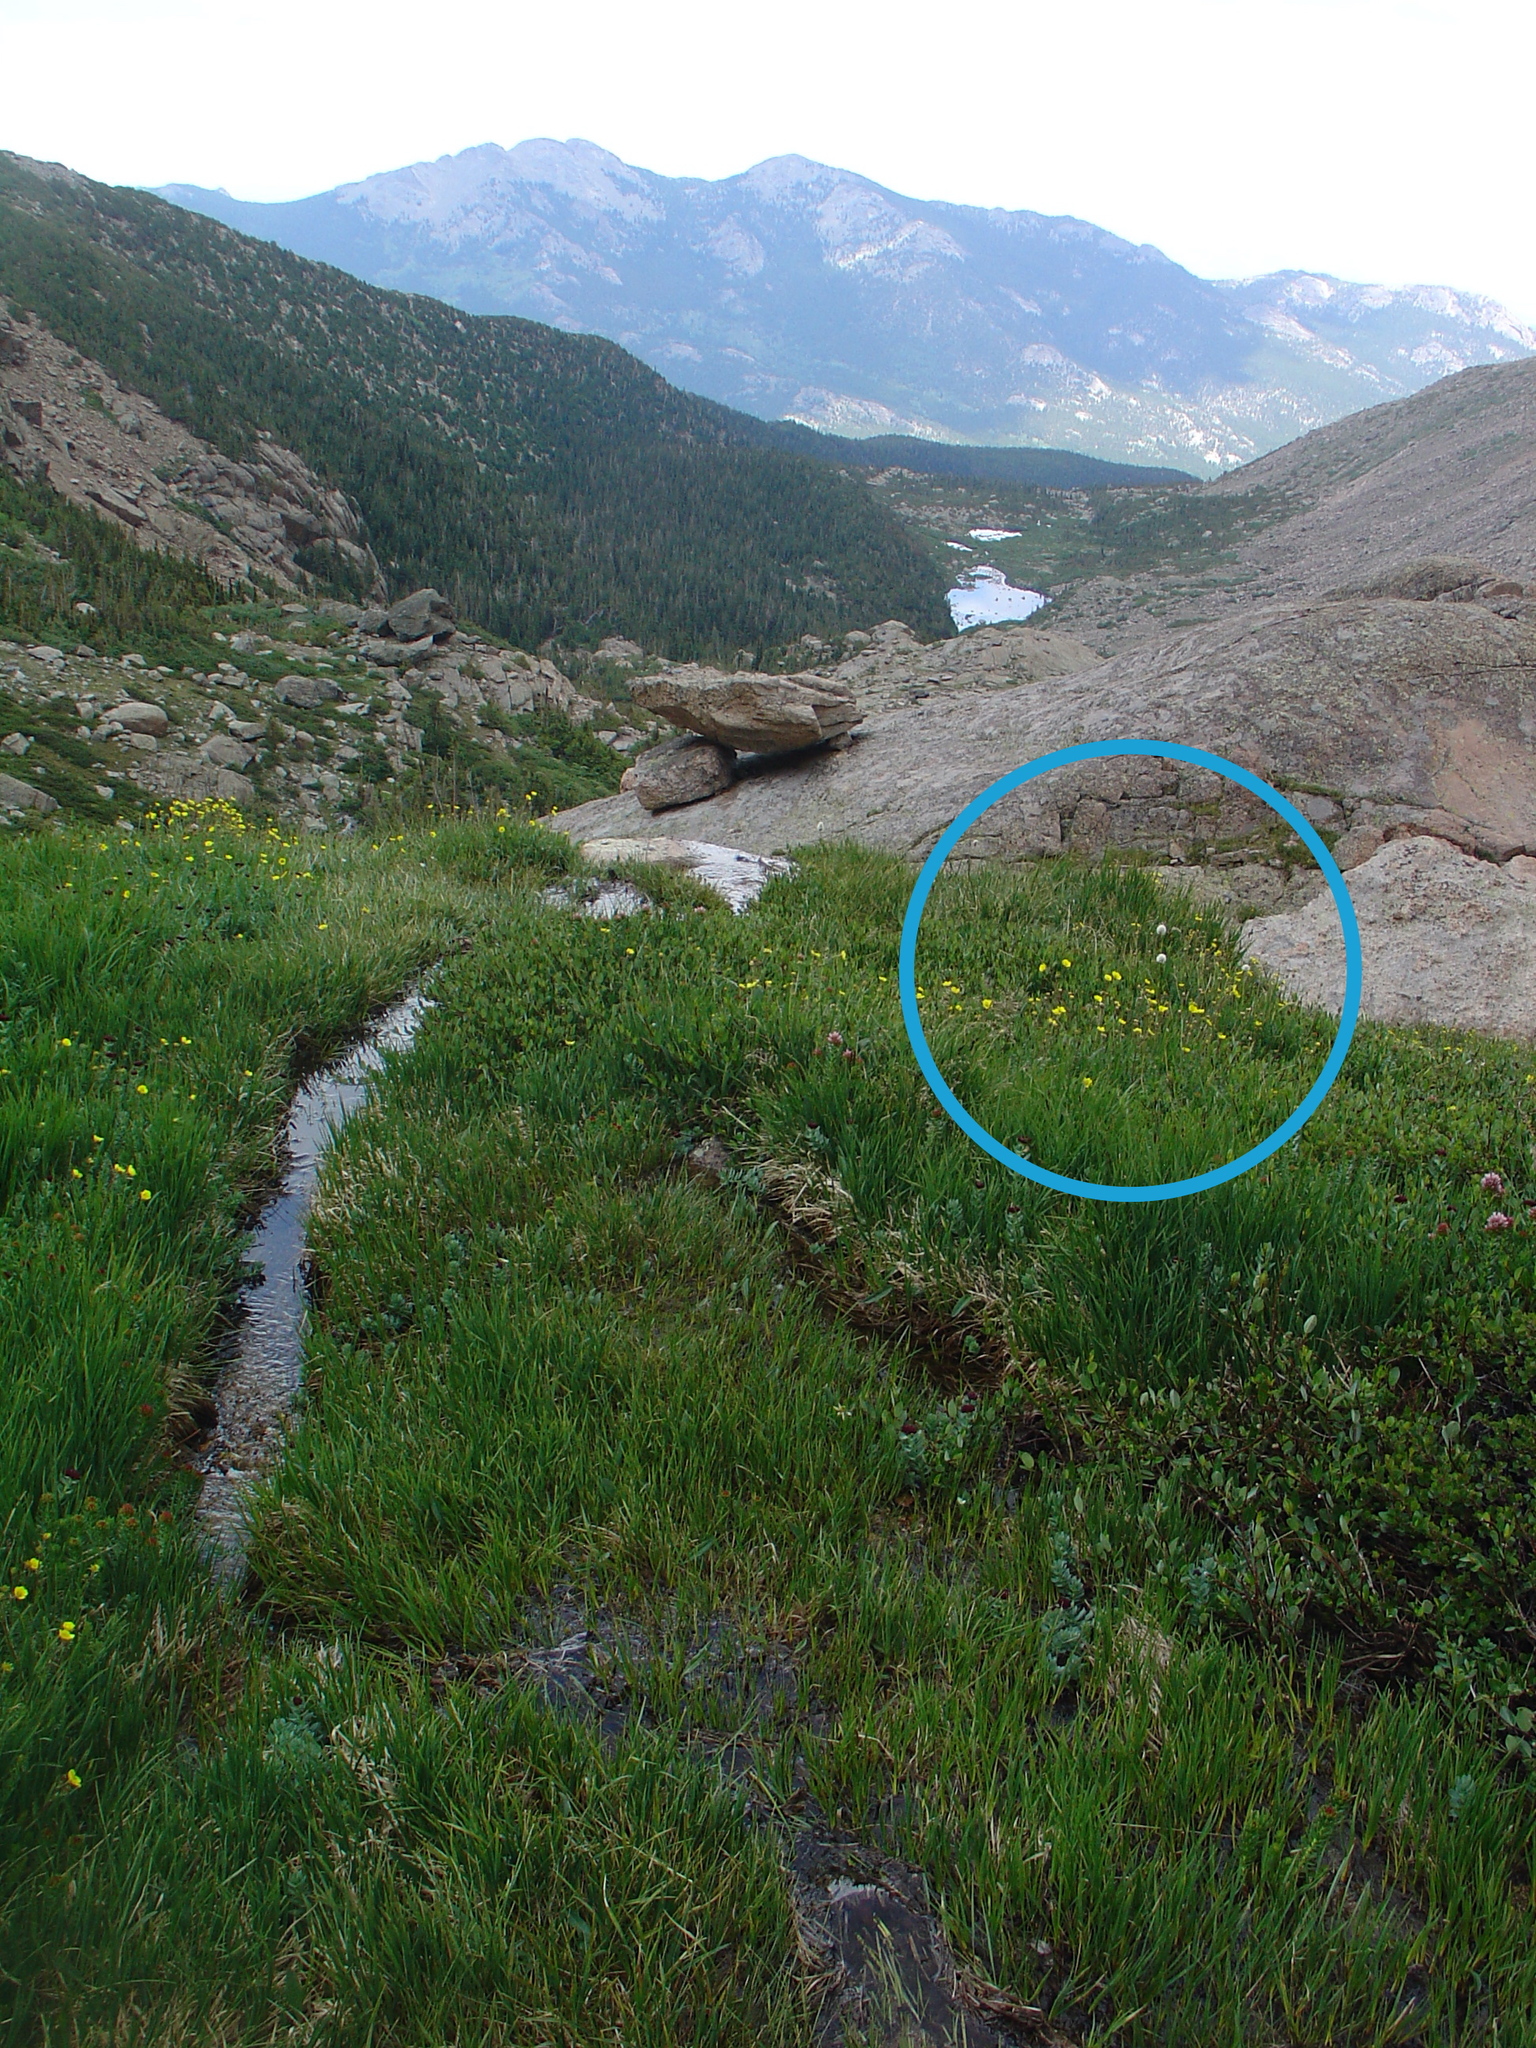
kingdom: Plantae
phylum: Tracheophyta
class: Magnoliopsida
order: Caryophyllales
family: Polygonaceae
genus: Bistorta
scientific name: Bistorta bistortoides
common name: American bistort
